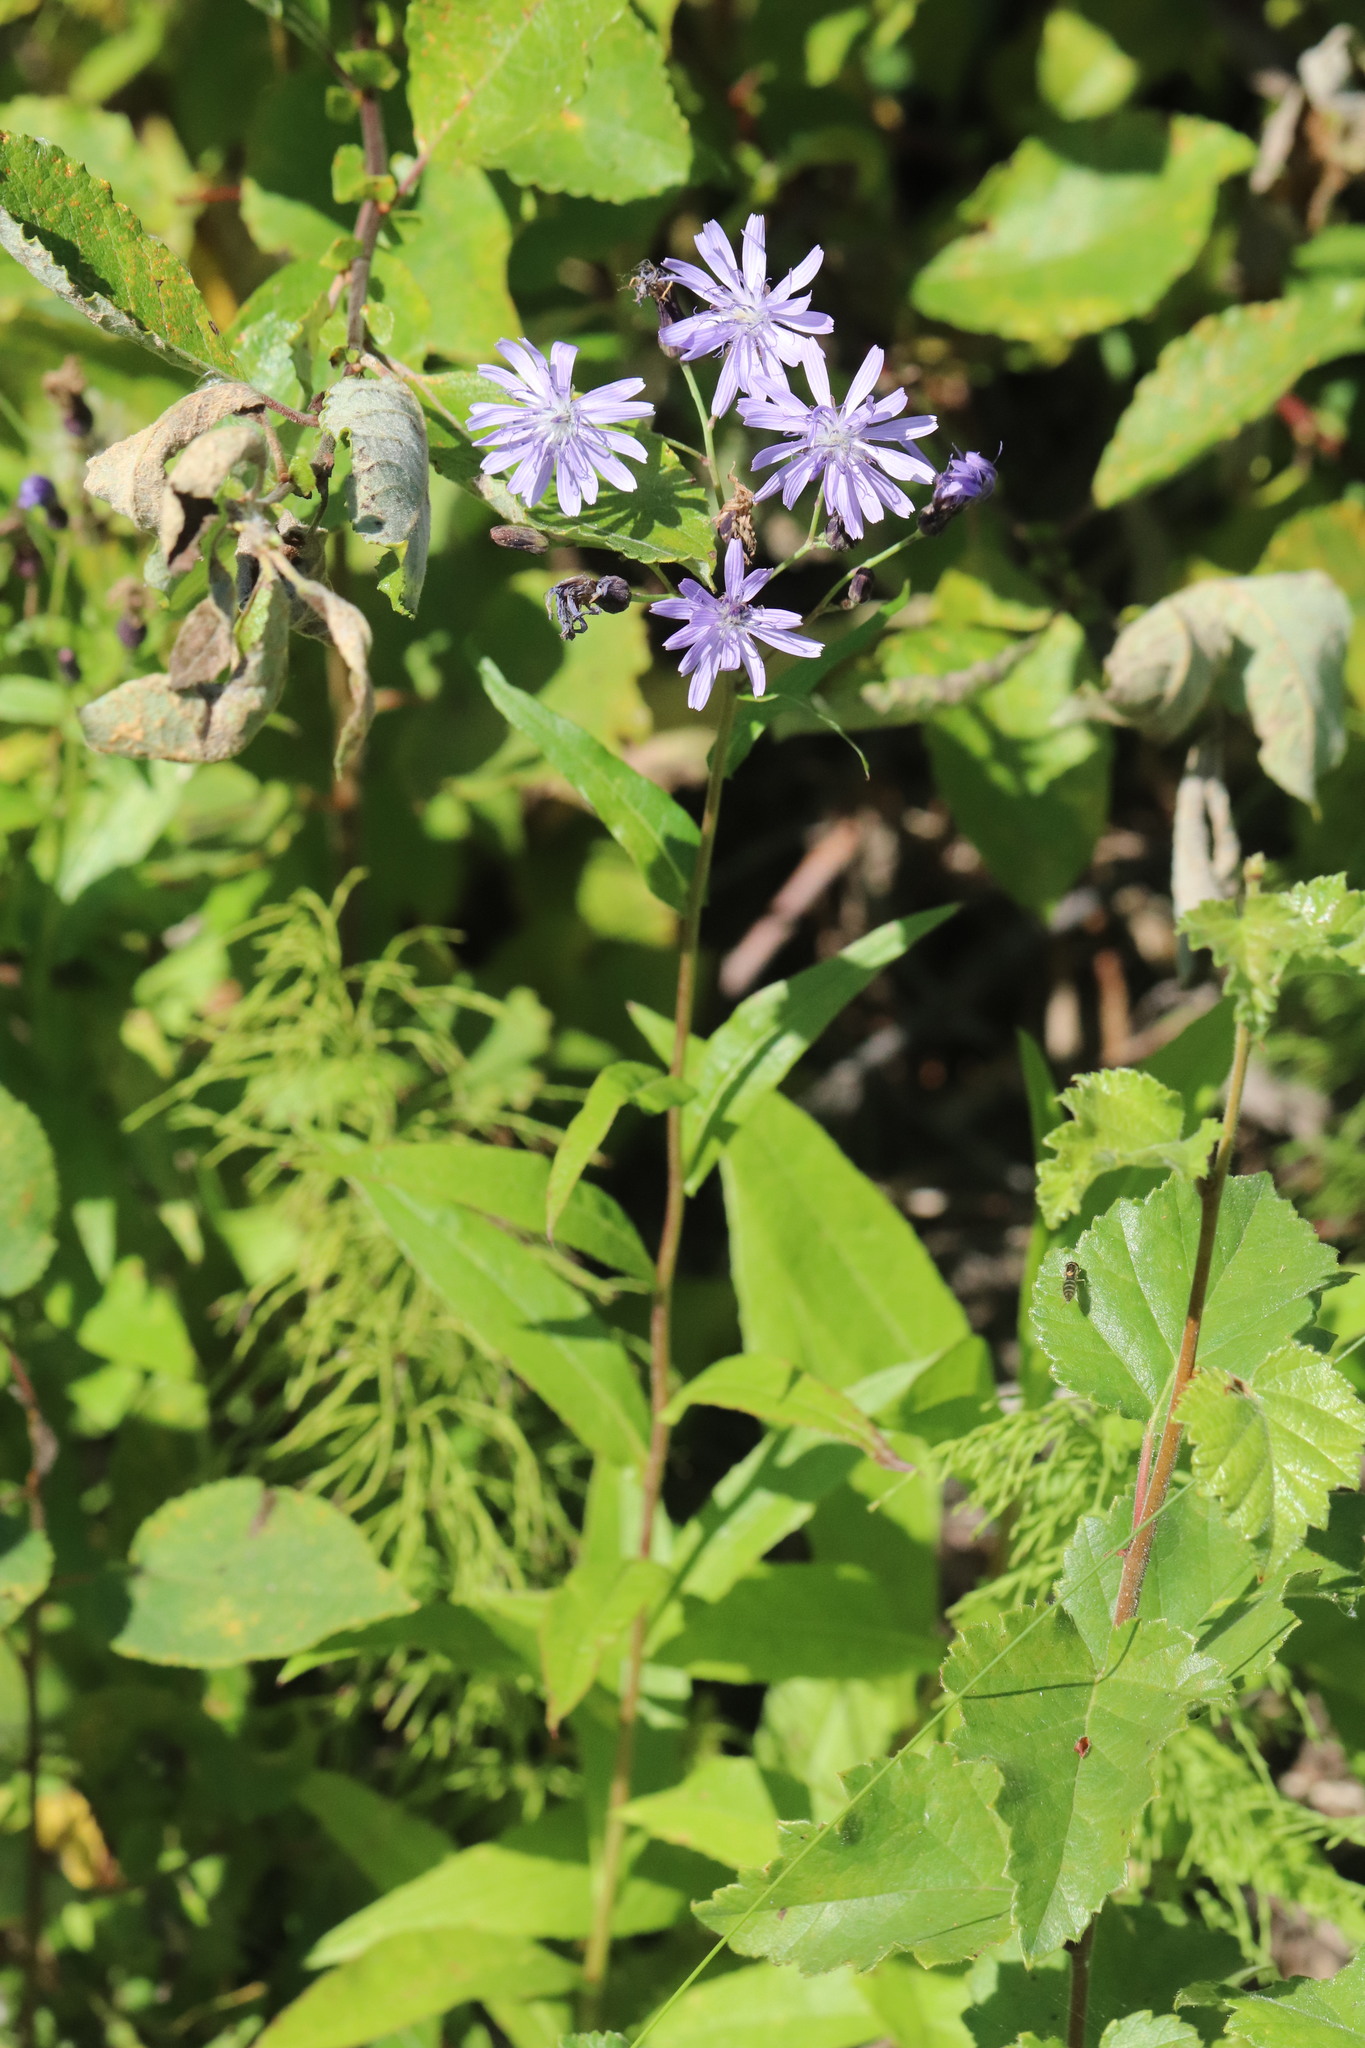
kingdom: Plantae
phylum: Tracheophyta
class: Magnoliopsida
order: Asterales
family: Asteraceae
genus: Lactuca
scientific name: Lactuca sibirica
